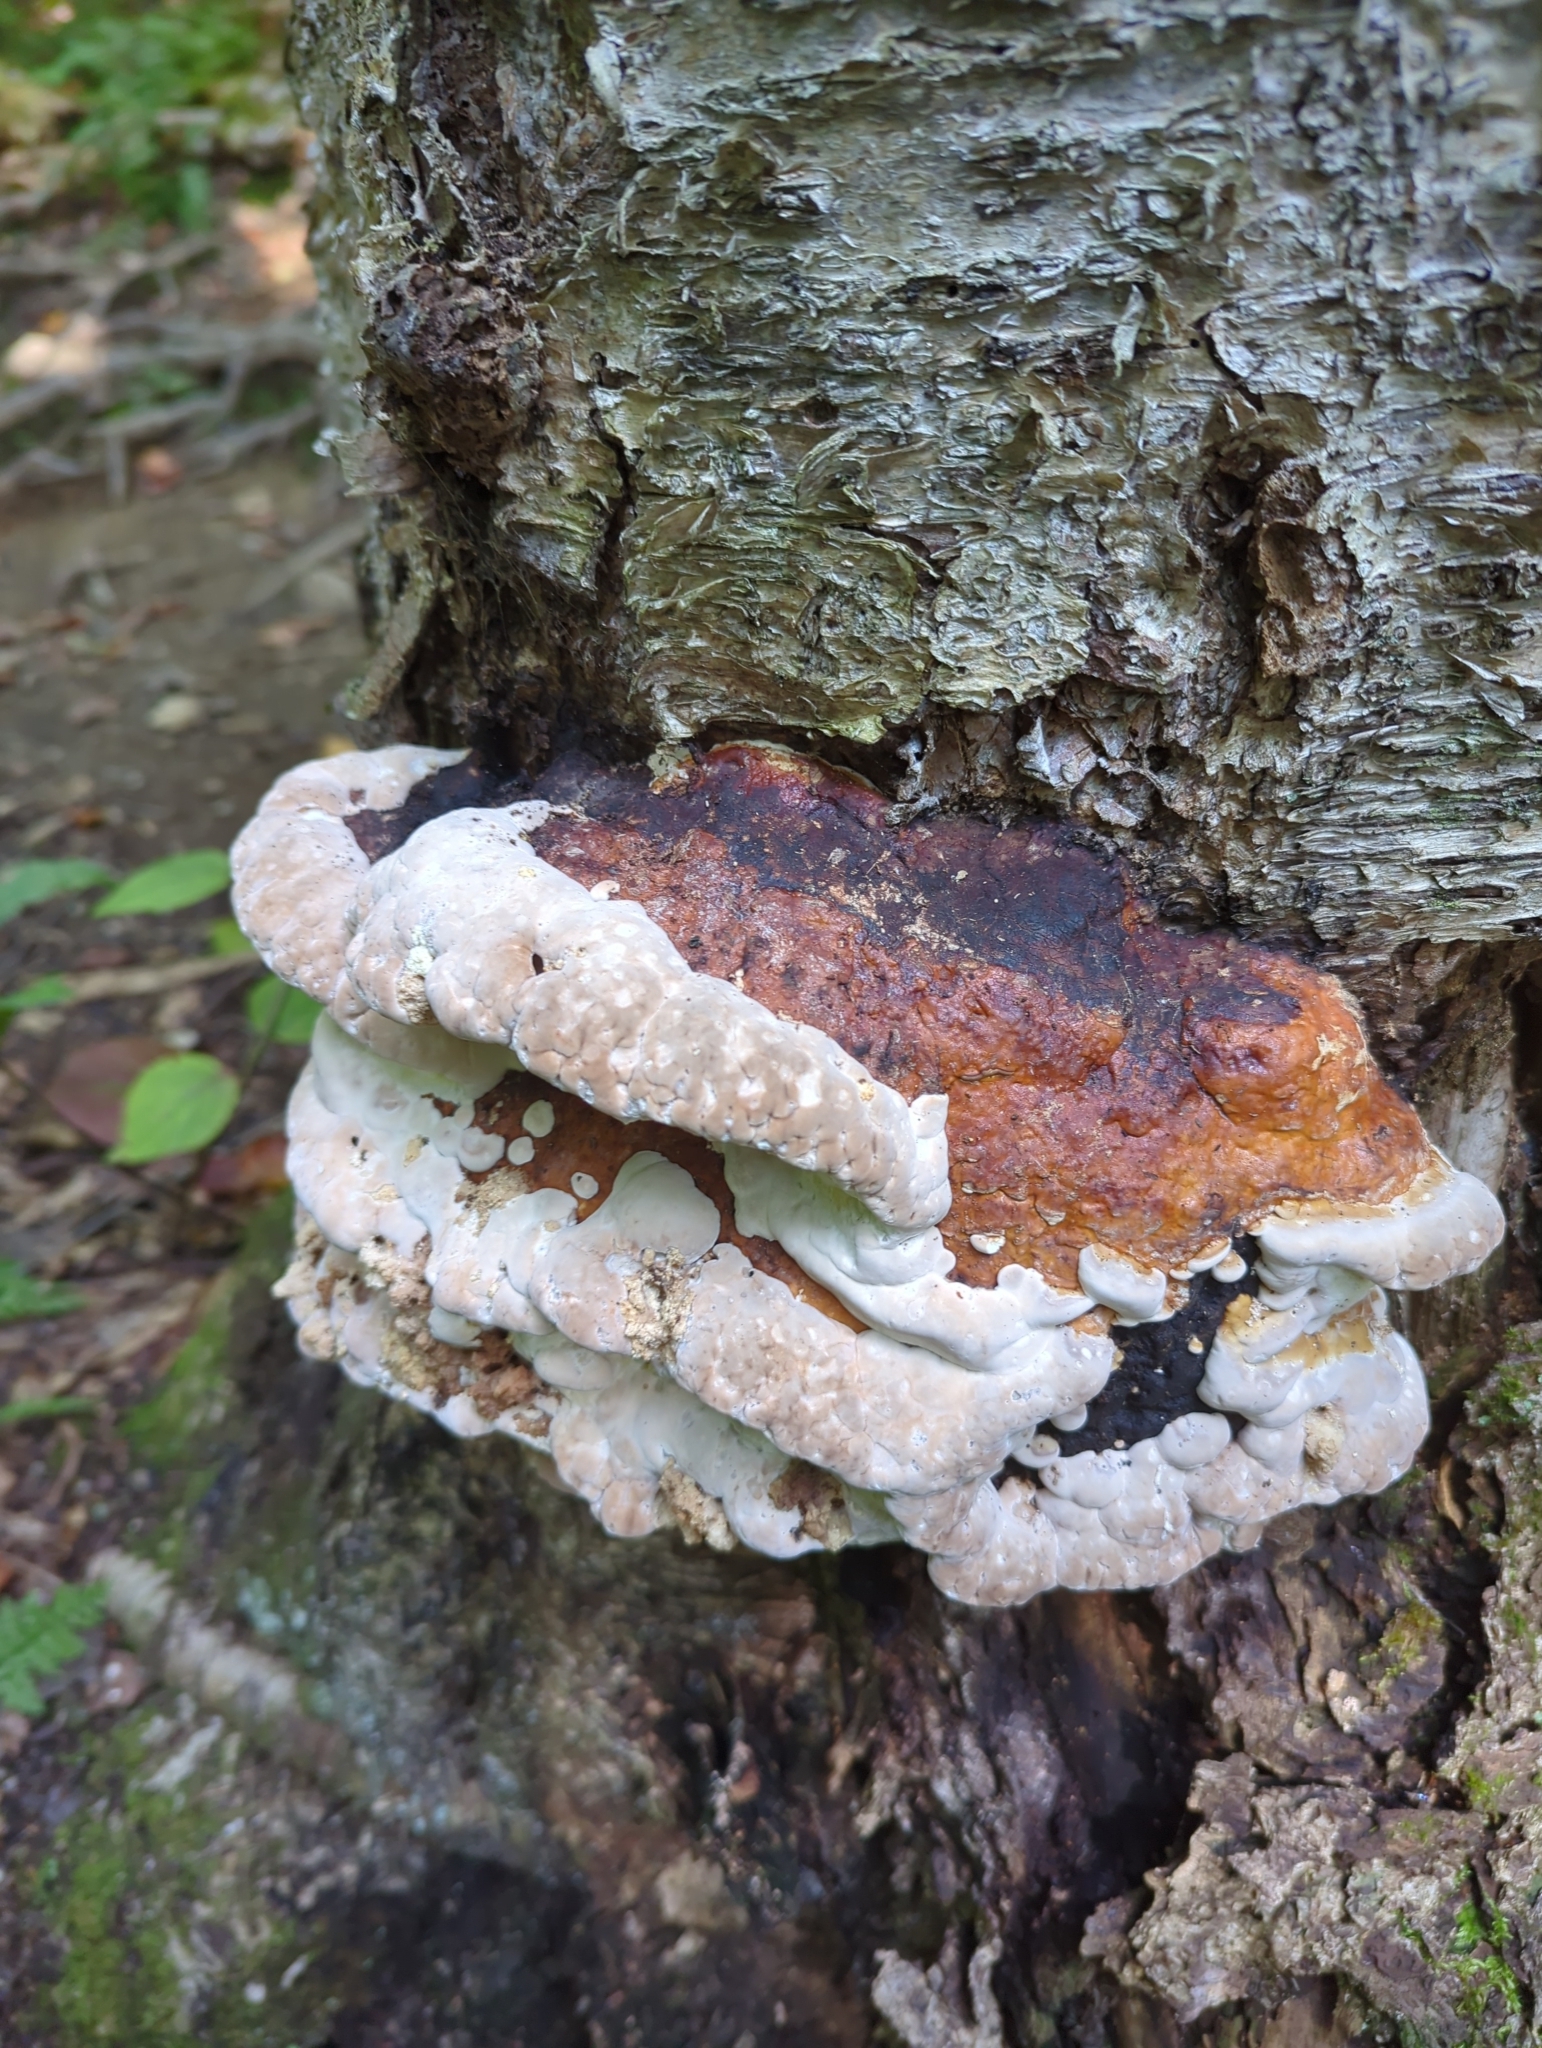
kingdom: Fungi
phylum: Basidiomycota
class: Agaricomycetes
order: Polyporales
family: Fomitopsidaceae
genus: Fomitopsis
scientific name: Fomitopsis mounceae
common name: Northern red belt
